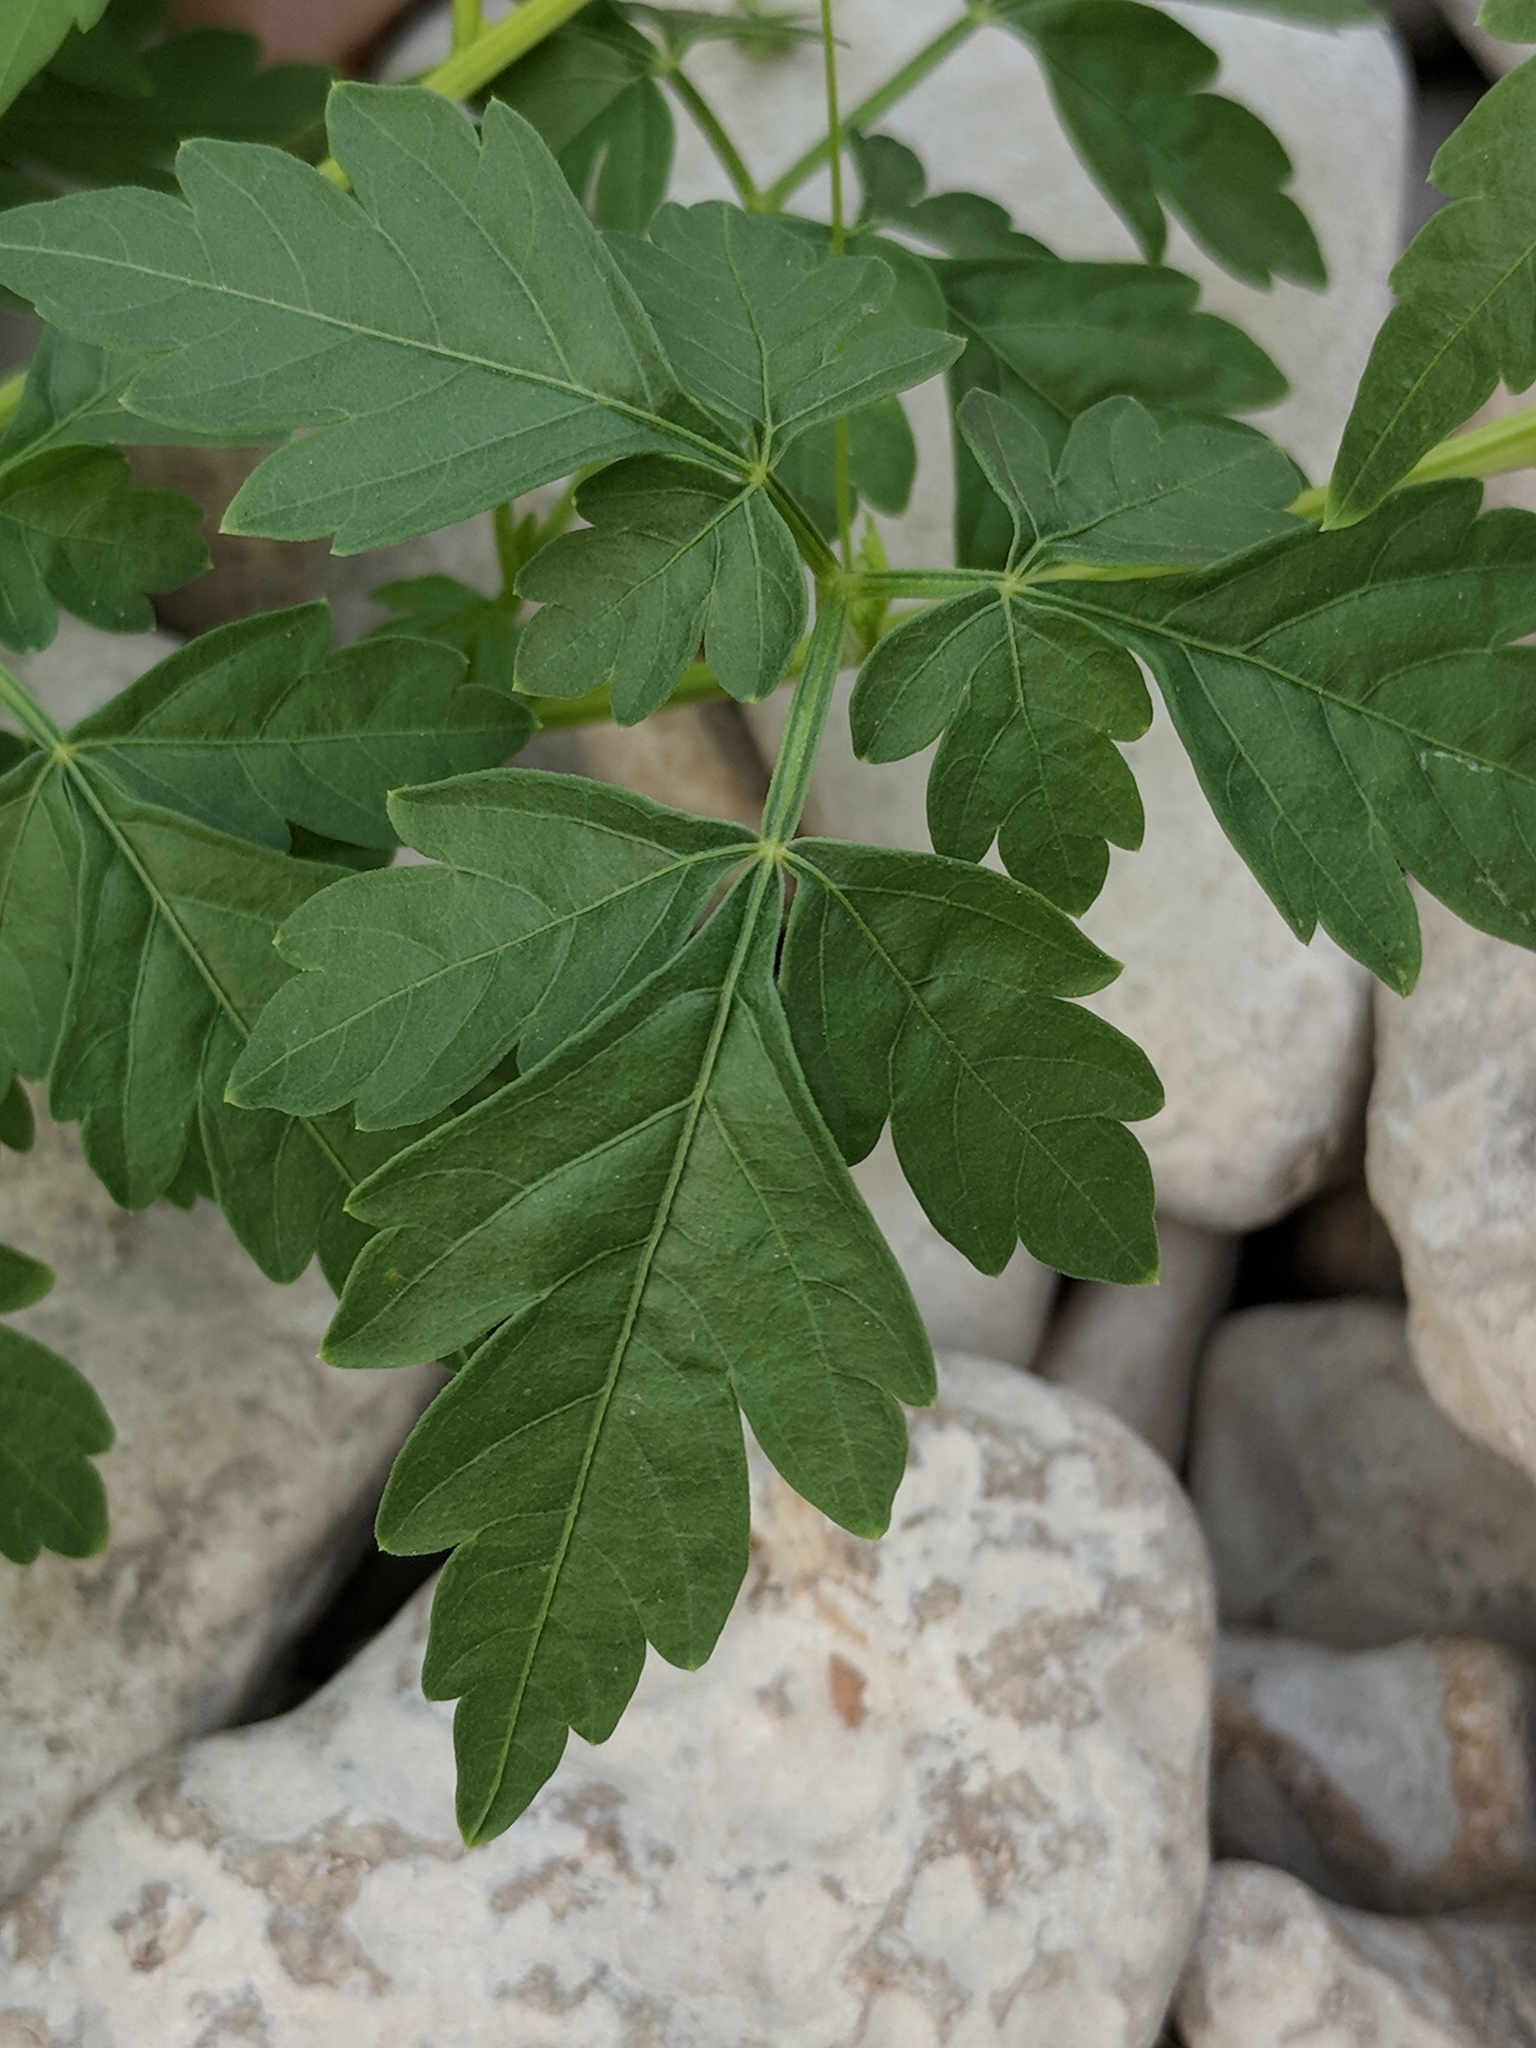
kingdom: Plantae
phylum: Tracheophyta
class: Magnoliopsida
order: Sapindales
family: Sapindaceae
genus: Cardiospermum
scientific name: Cardiospermum halicacabum
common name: Balloon vine
